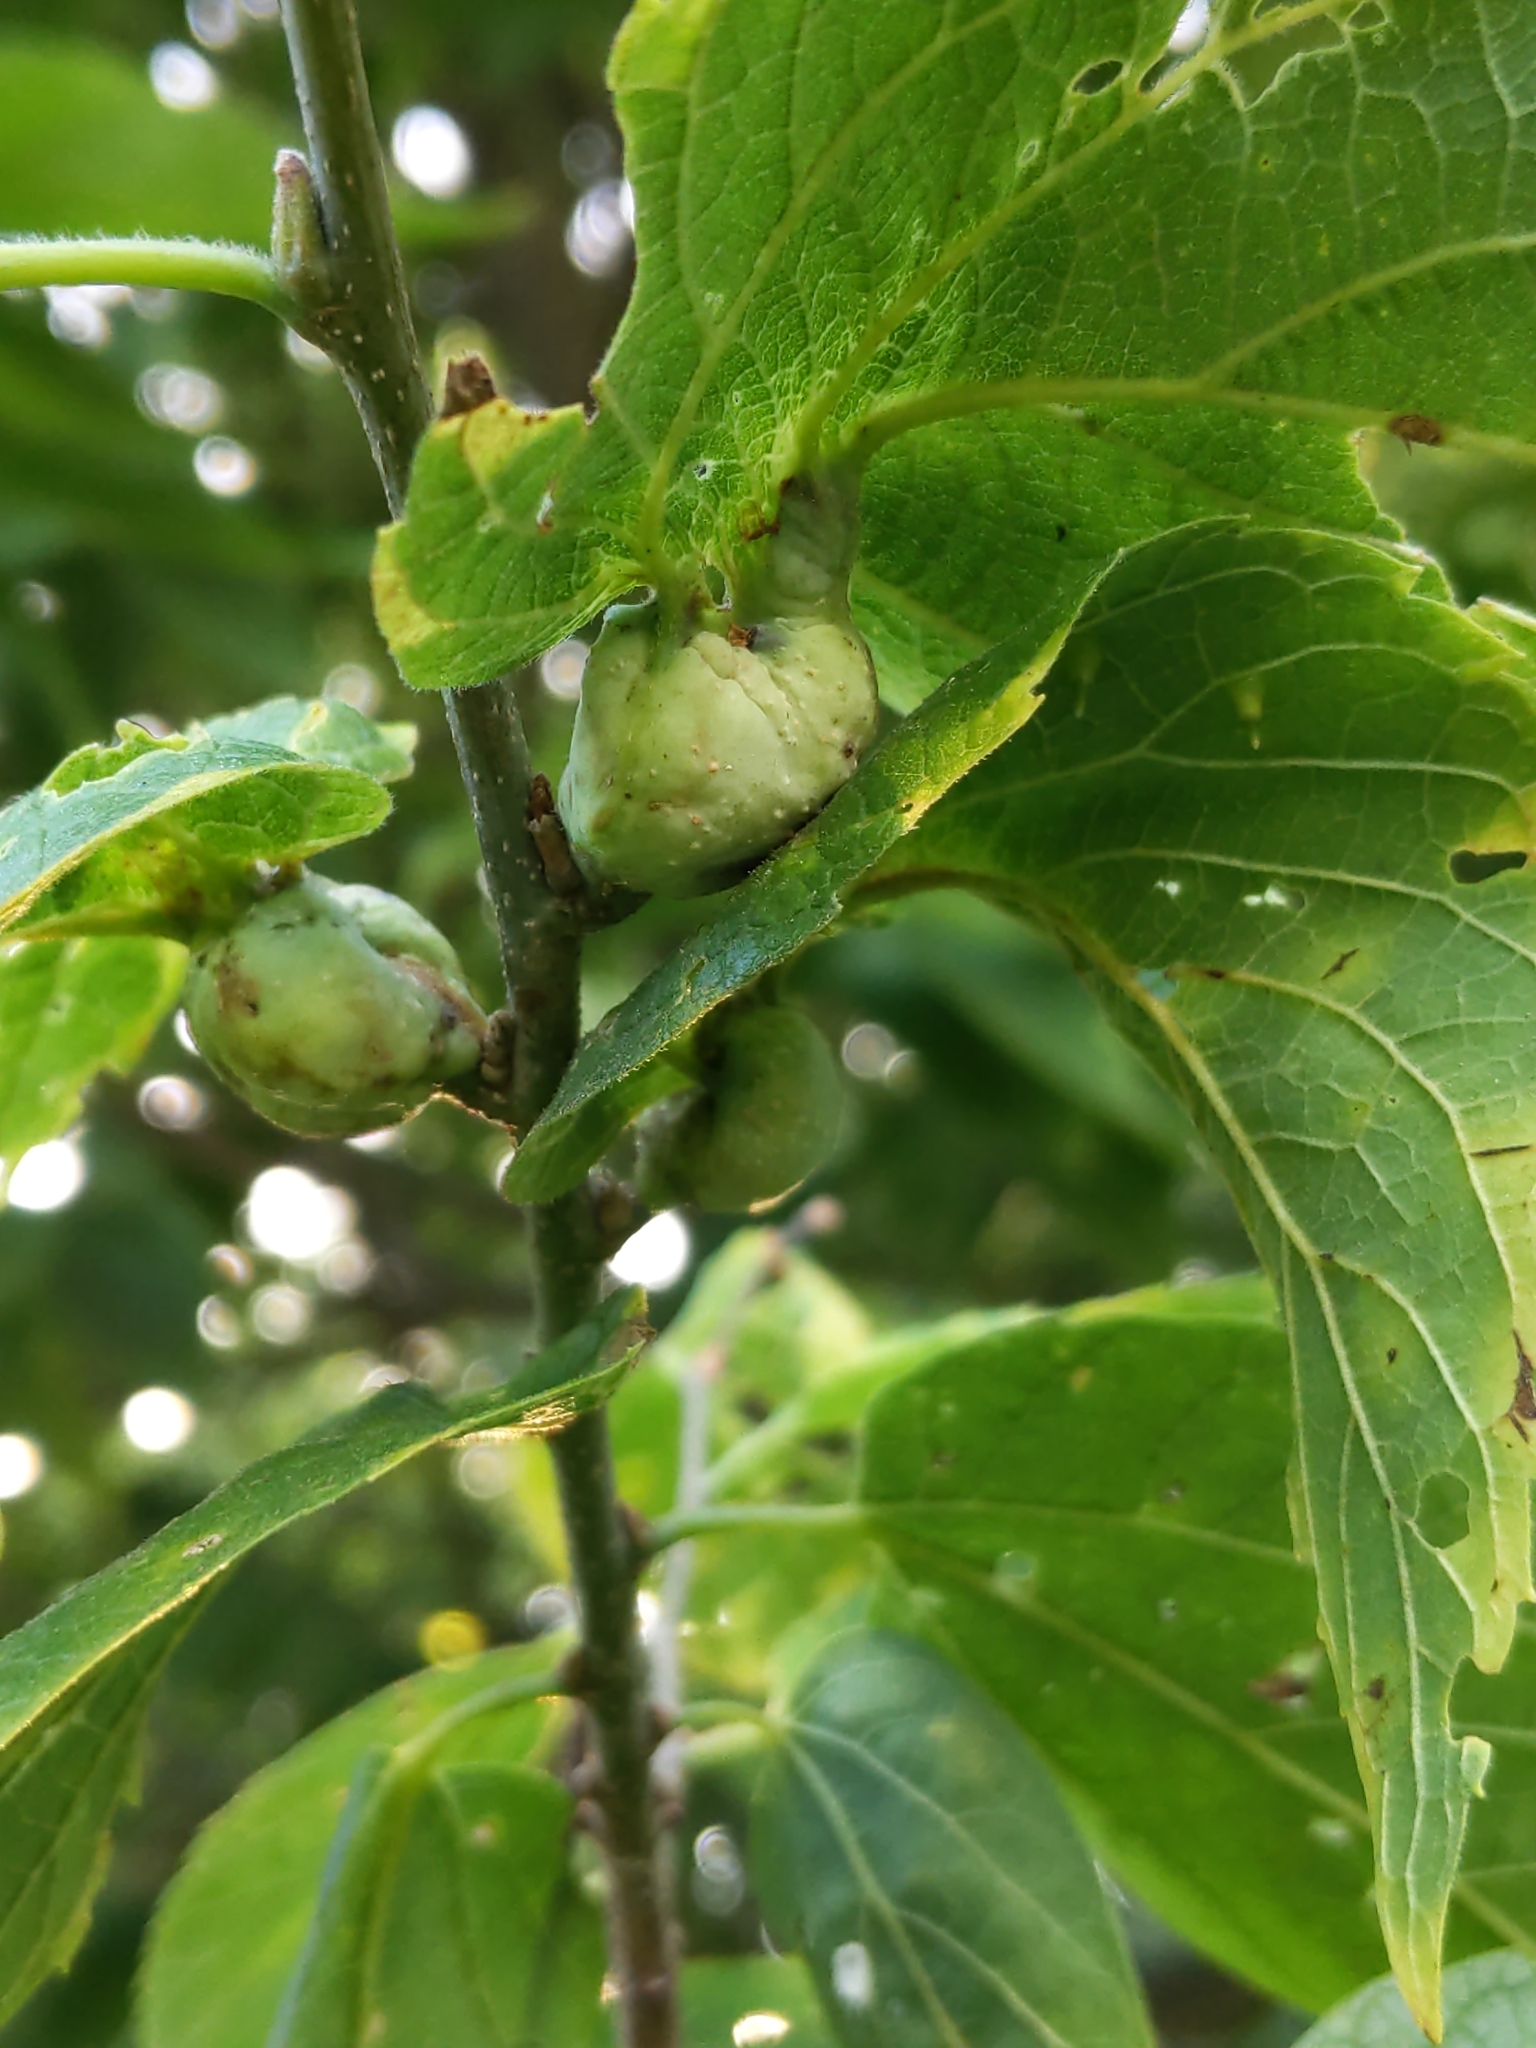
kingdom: Animalia
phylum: Arthropoda
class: Insecta
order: Hemiptera
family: Aphalaridae
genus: Pachypsylla
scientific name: Pachypsylla venusta
